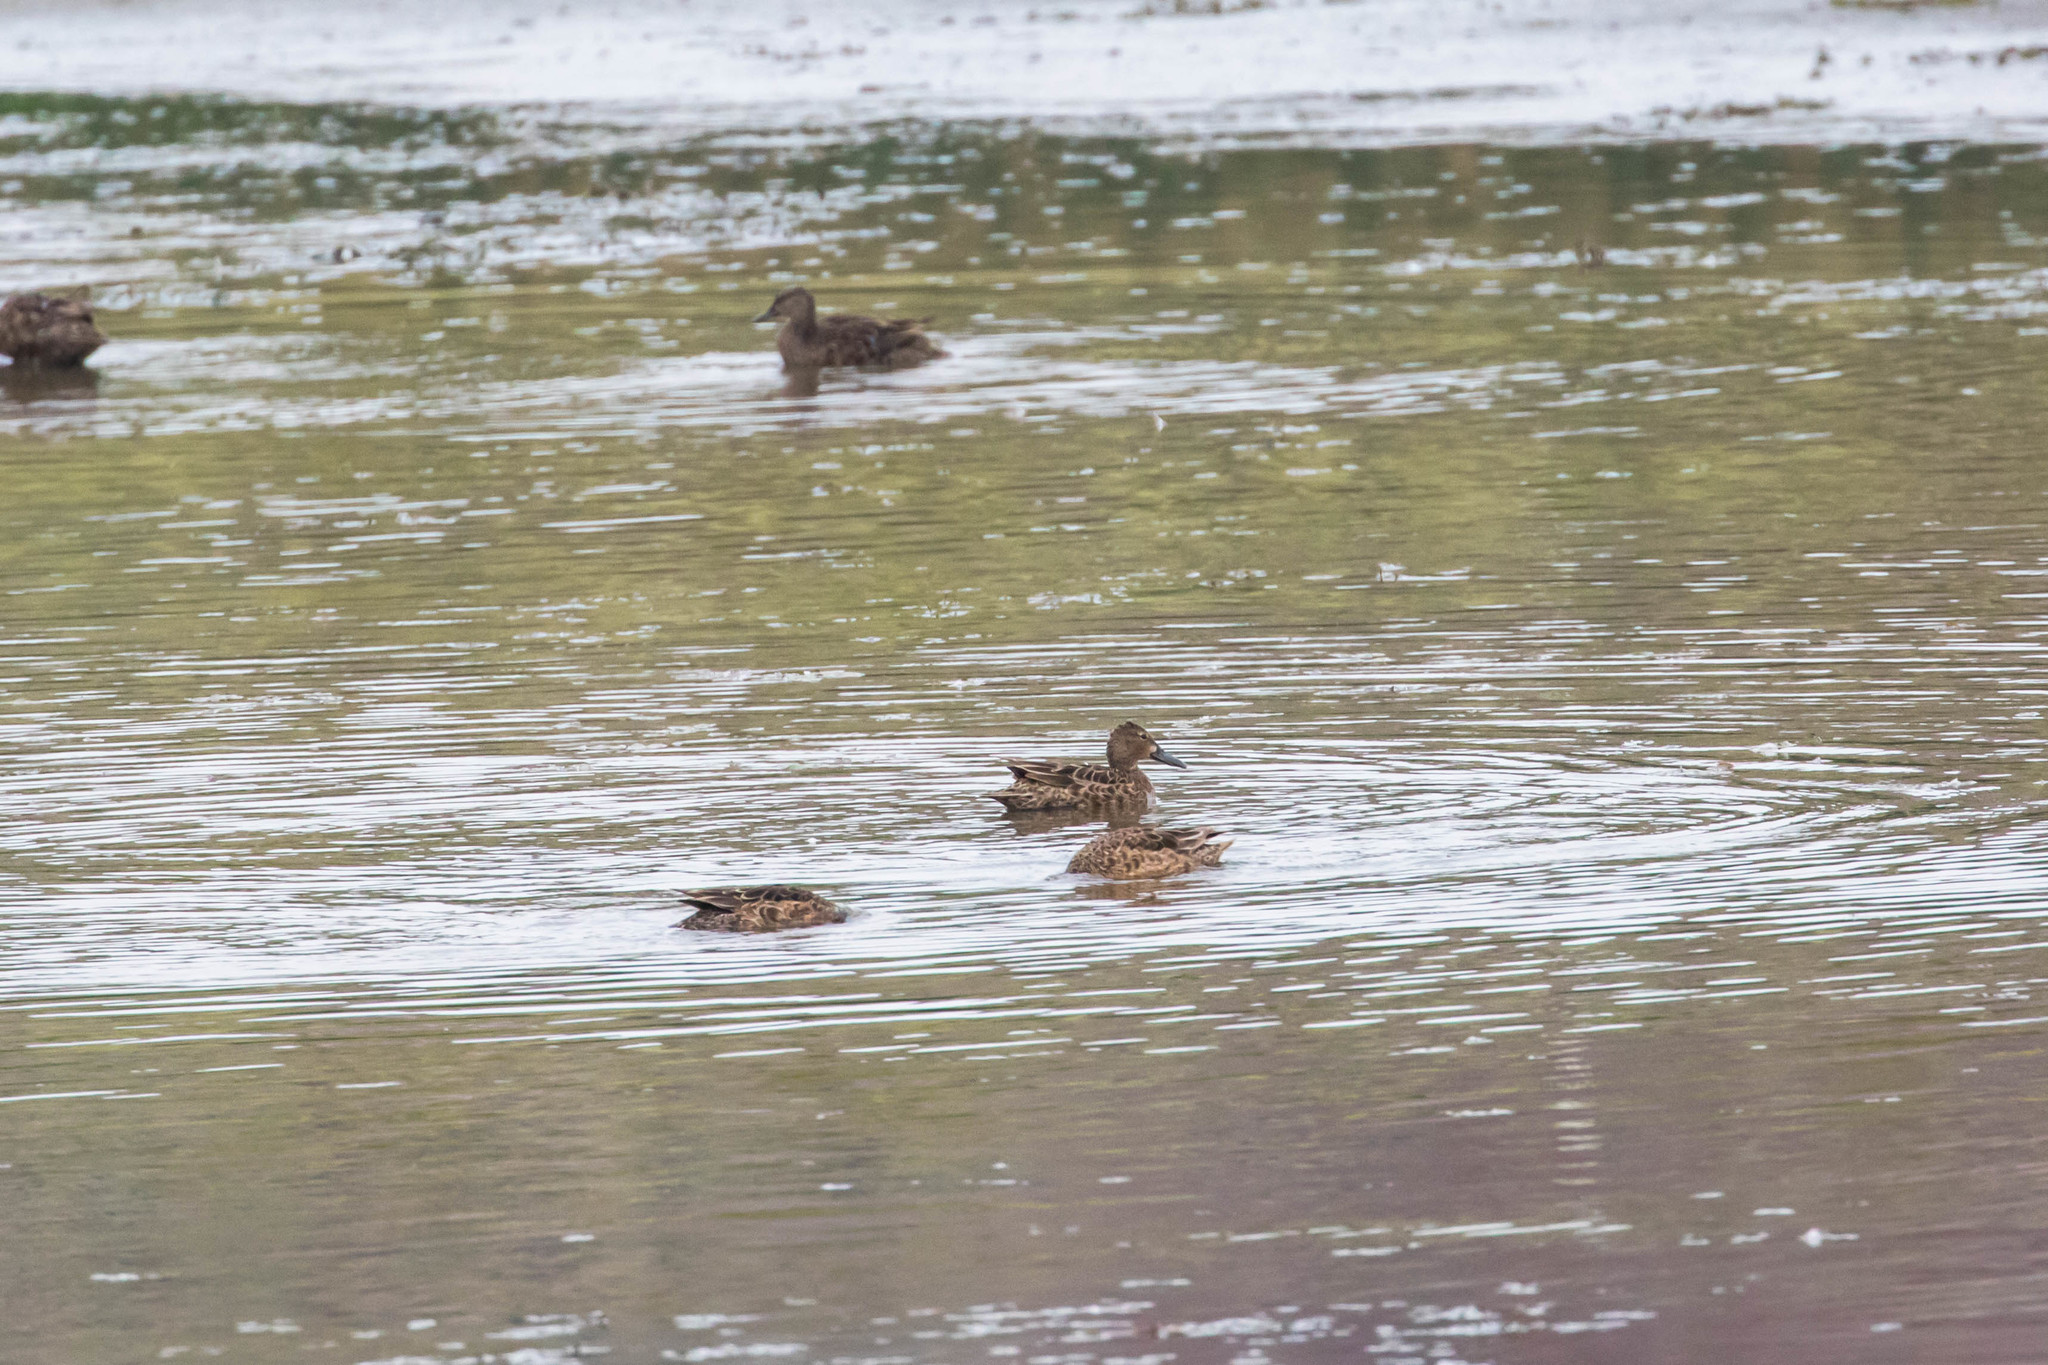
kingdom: Animalia
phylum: Chordata
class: Aves
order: Anseriformes
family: Anatidae
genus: Spatula
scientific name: Spatula cyanoptera
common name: Cinnamon teal
